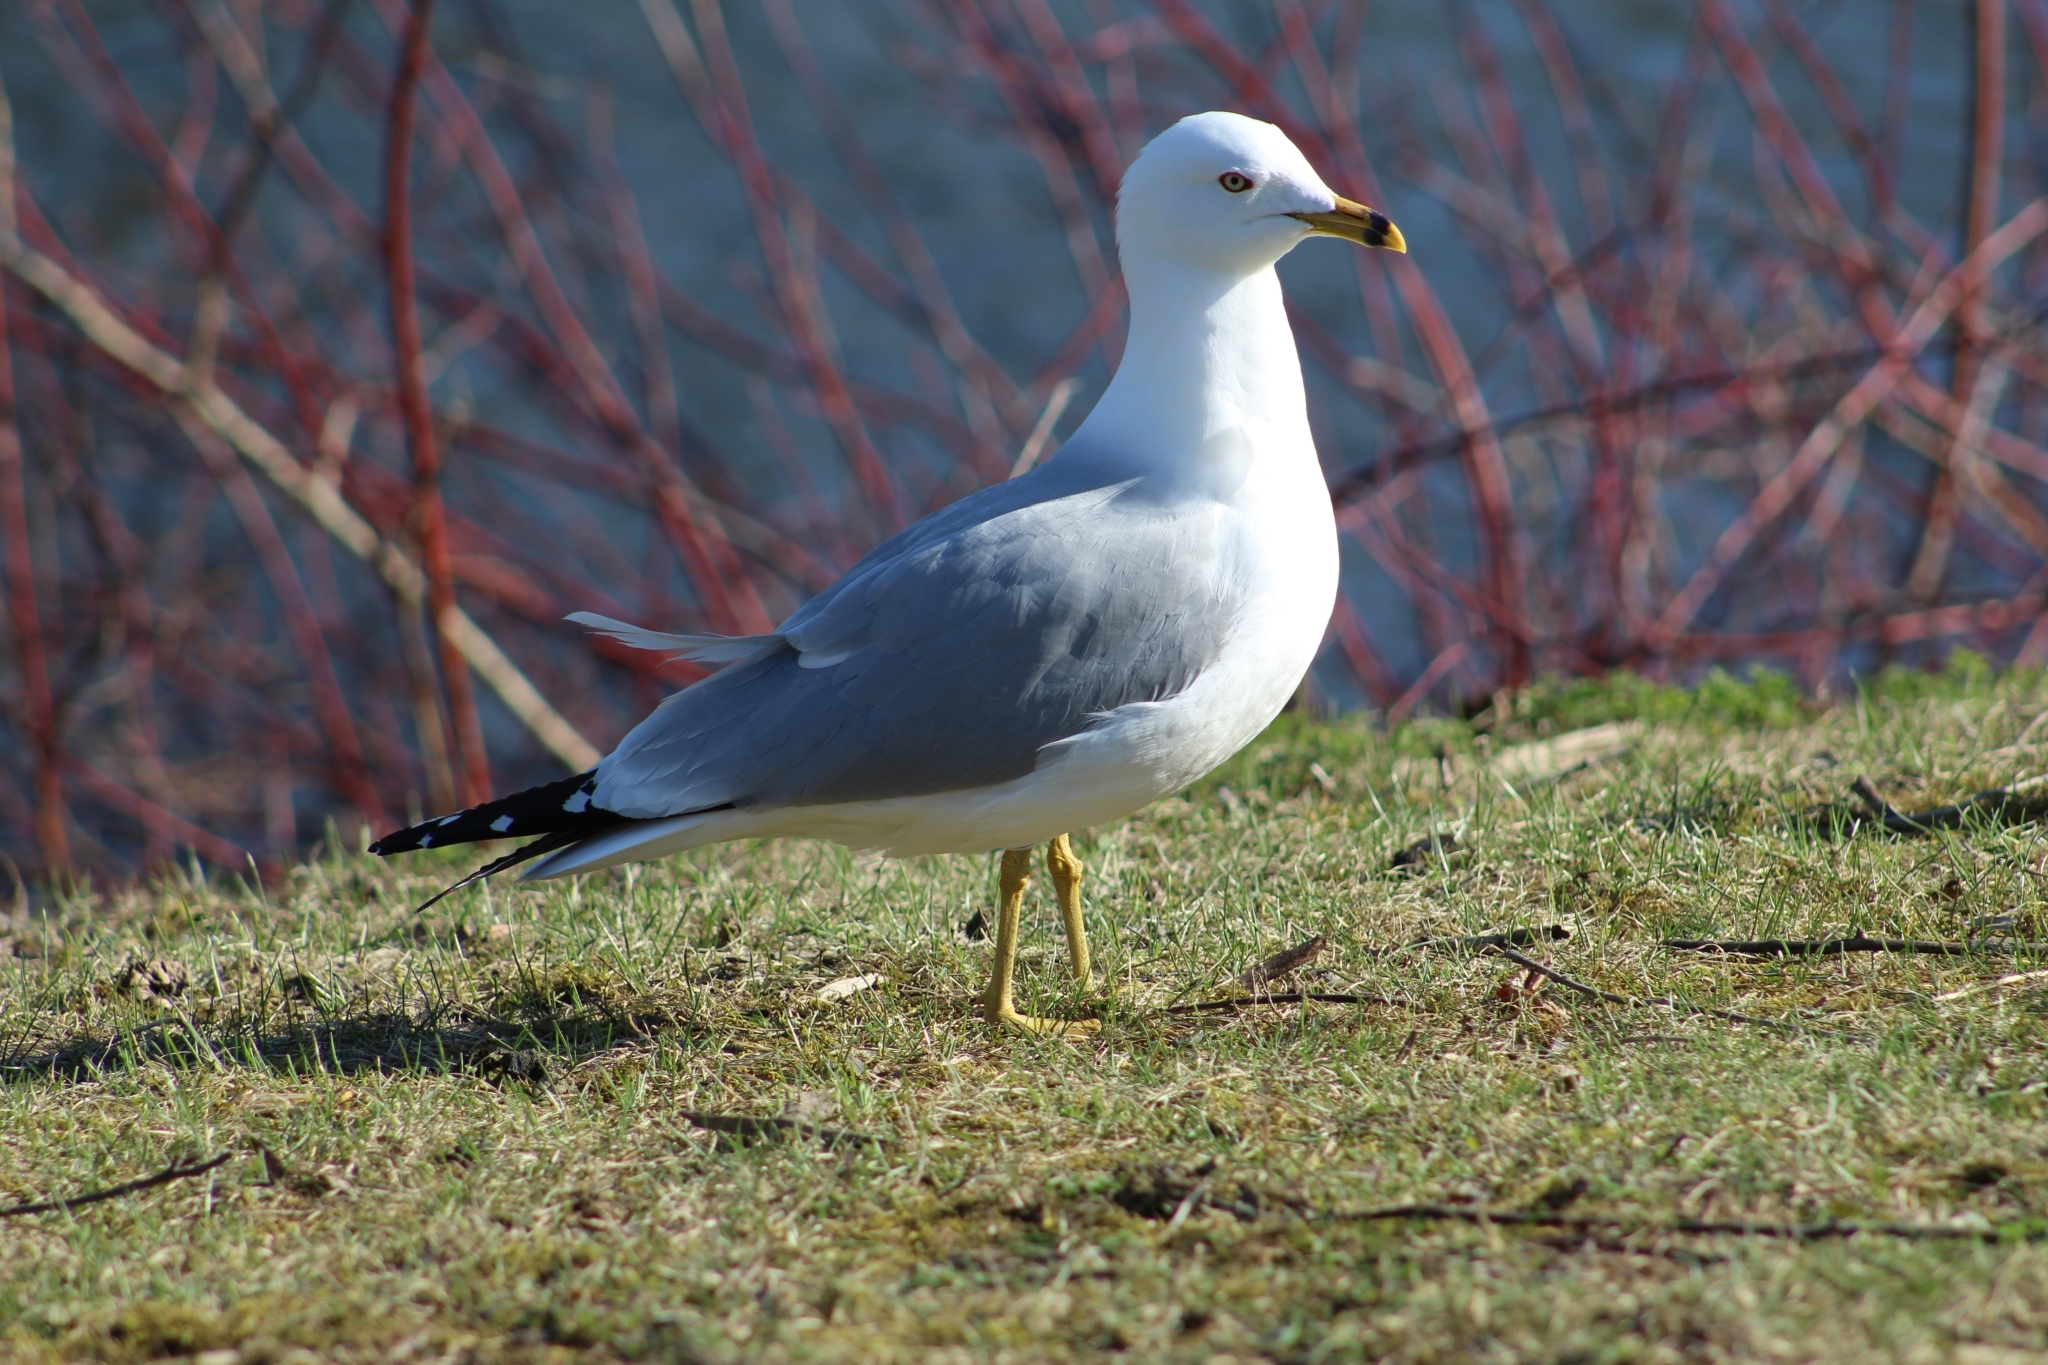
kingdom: Animalia
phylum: Chordata
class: Aves
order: Charadriiformes
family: Laridae
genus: Larus
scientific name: Larus delawarensis
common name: Ring-billed gull
